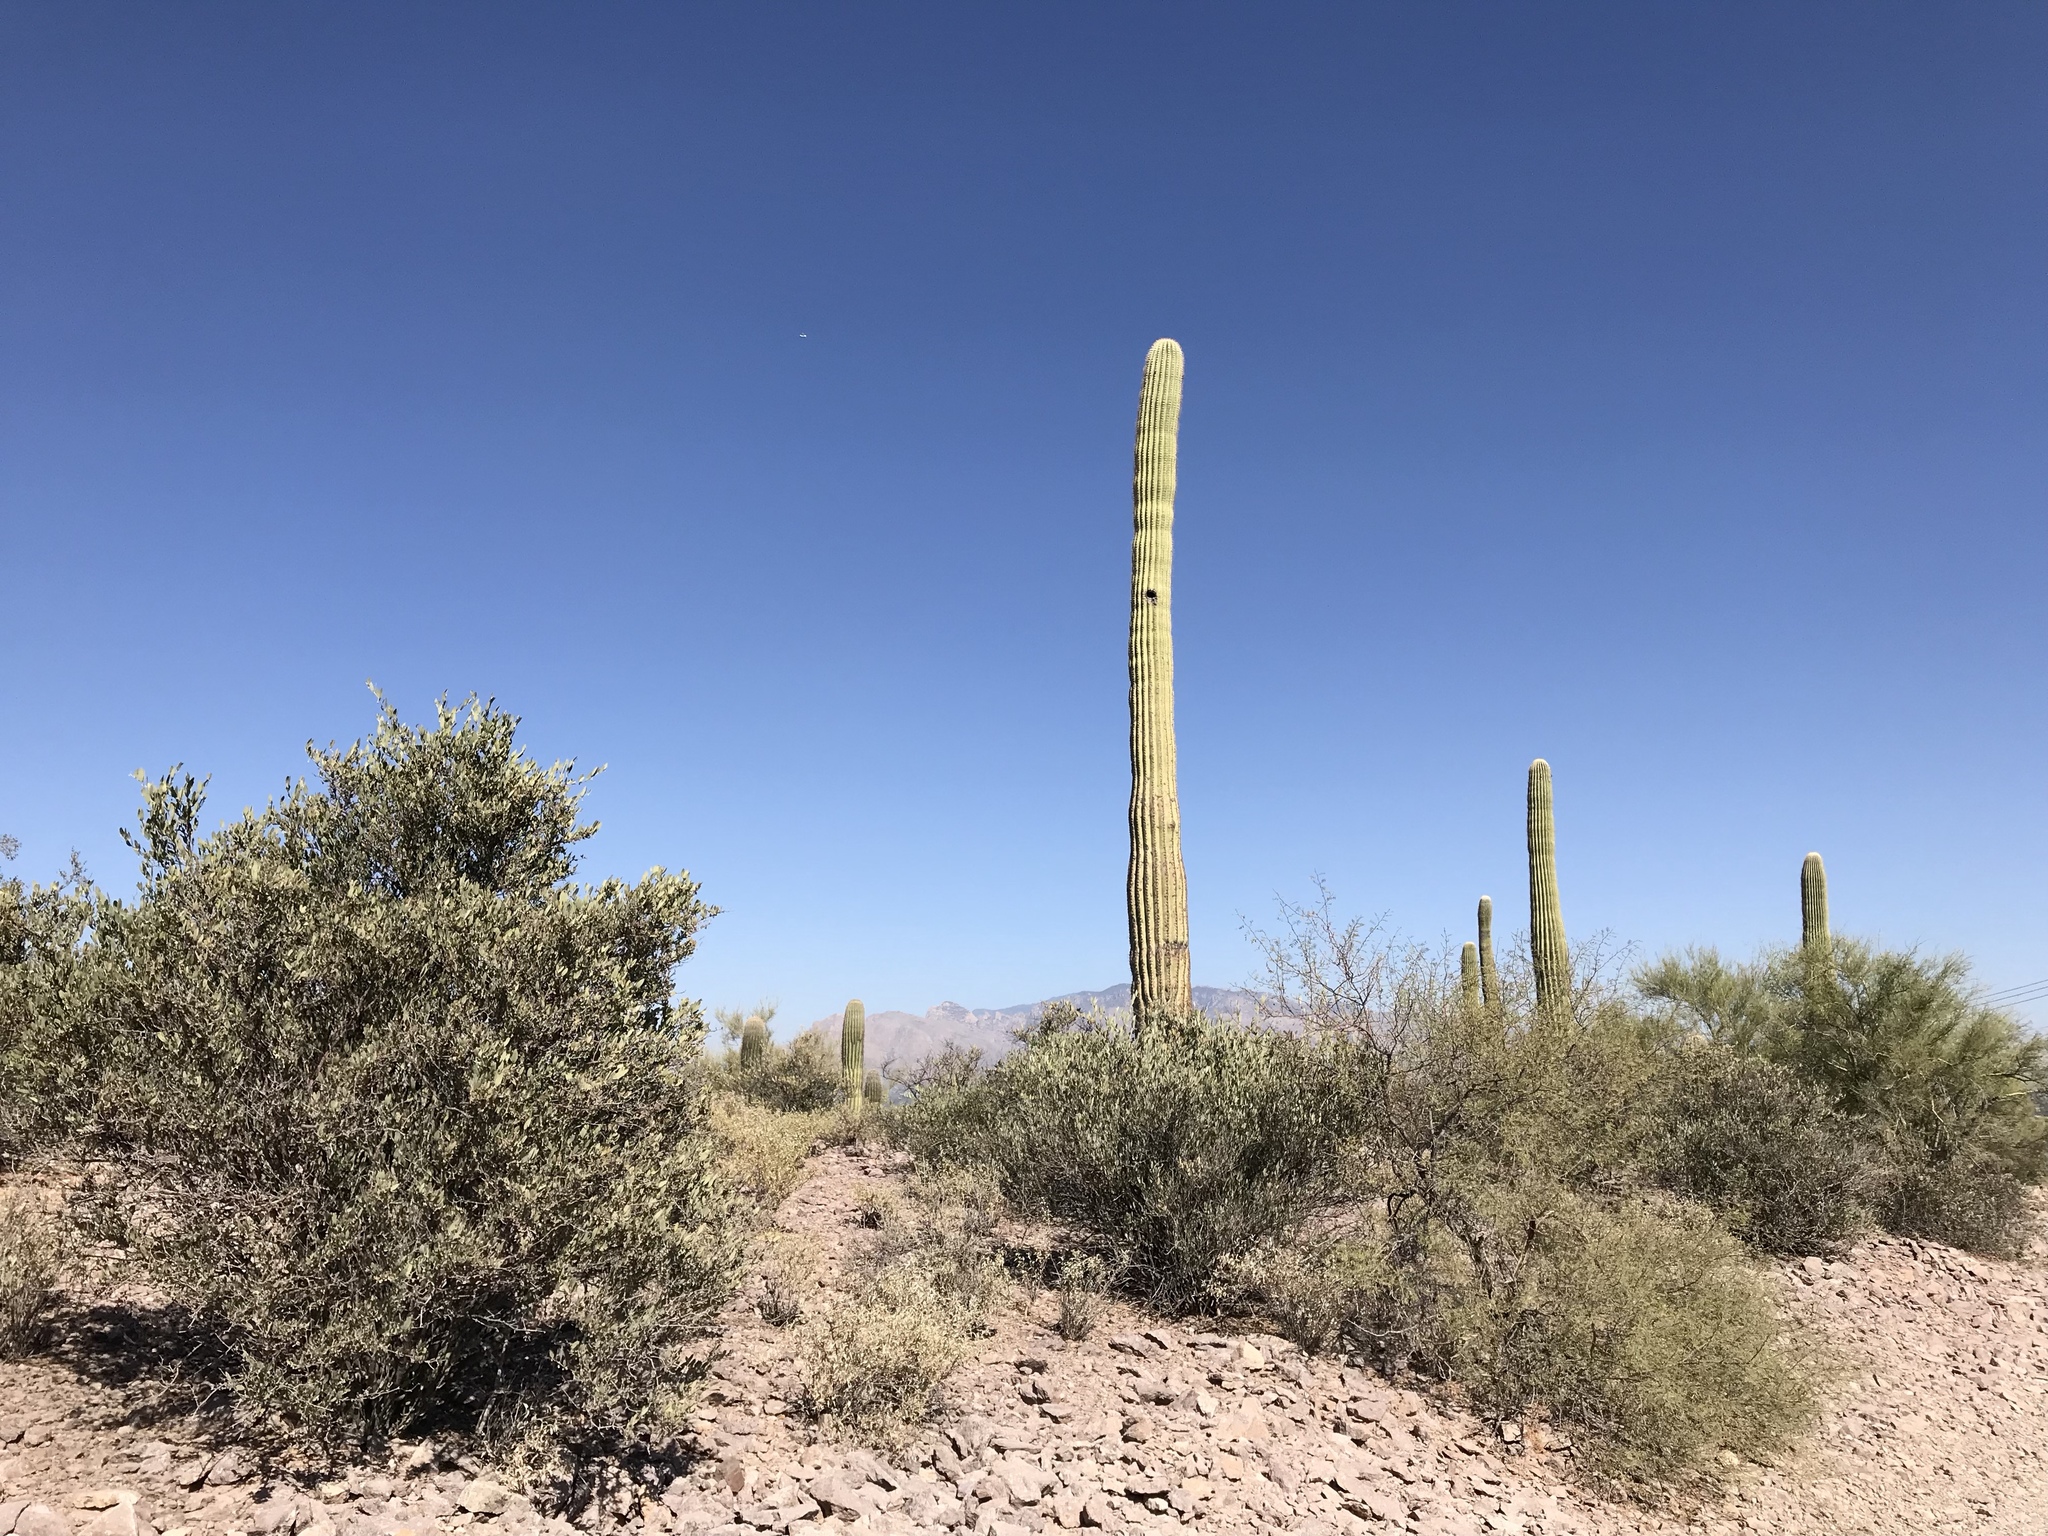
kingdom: Plantae
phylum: Tracheophyta
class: Magnoliopsida
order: Caryophyllales
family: Cactaceae
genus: Carnegiea
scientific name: Carnegiea gigantea
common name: Saguaro
